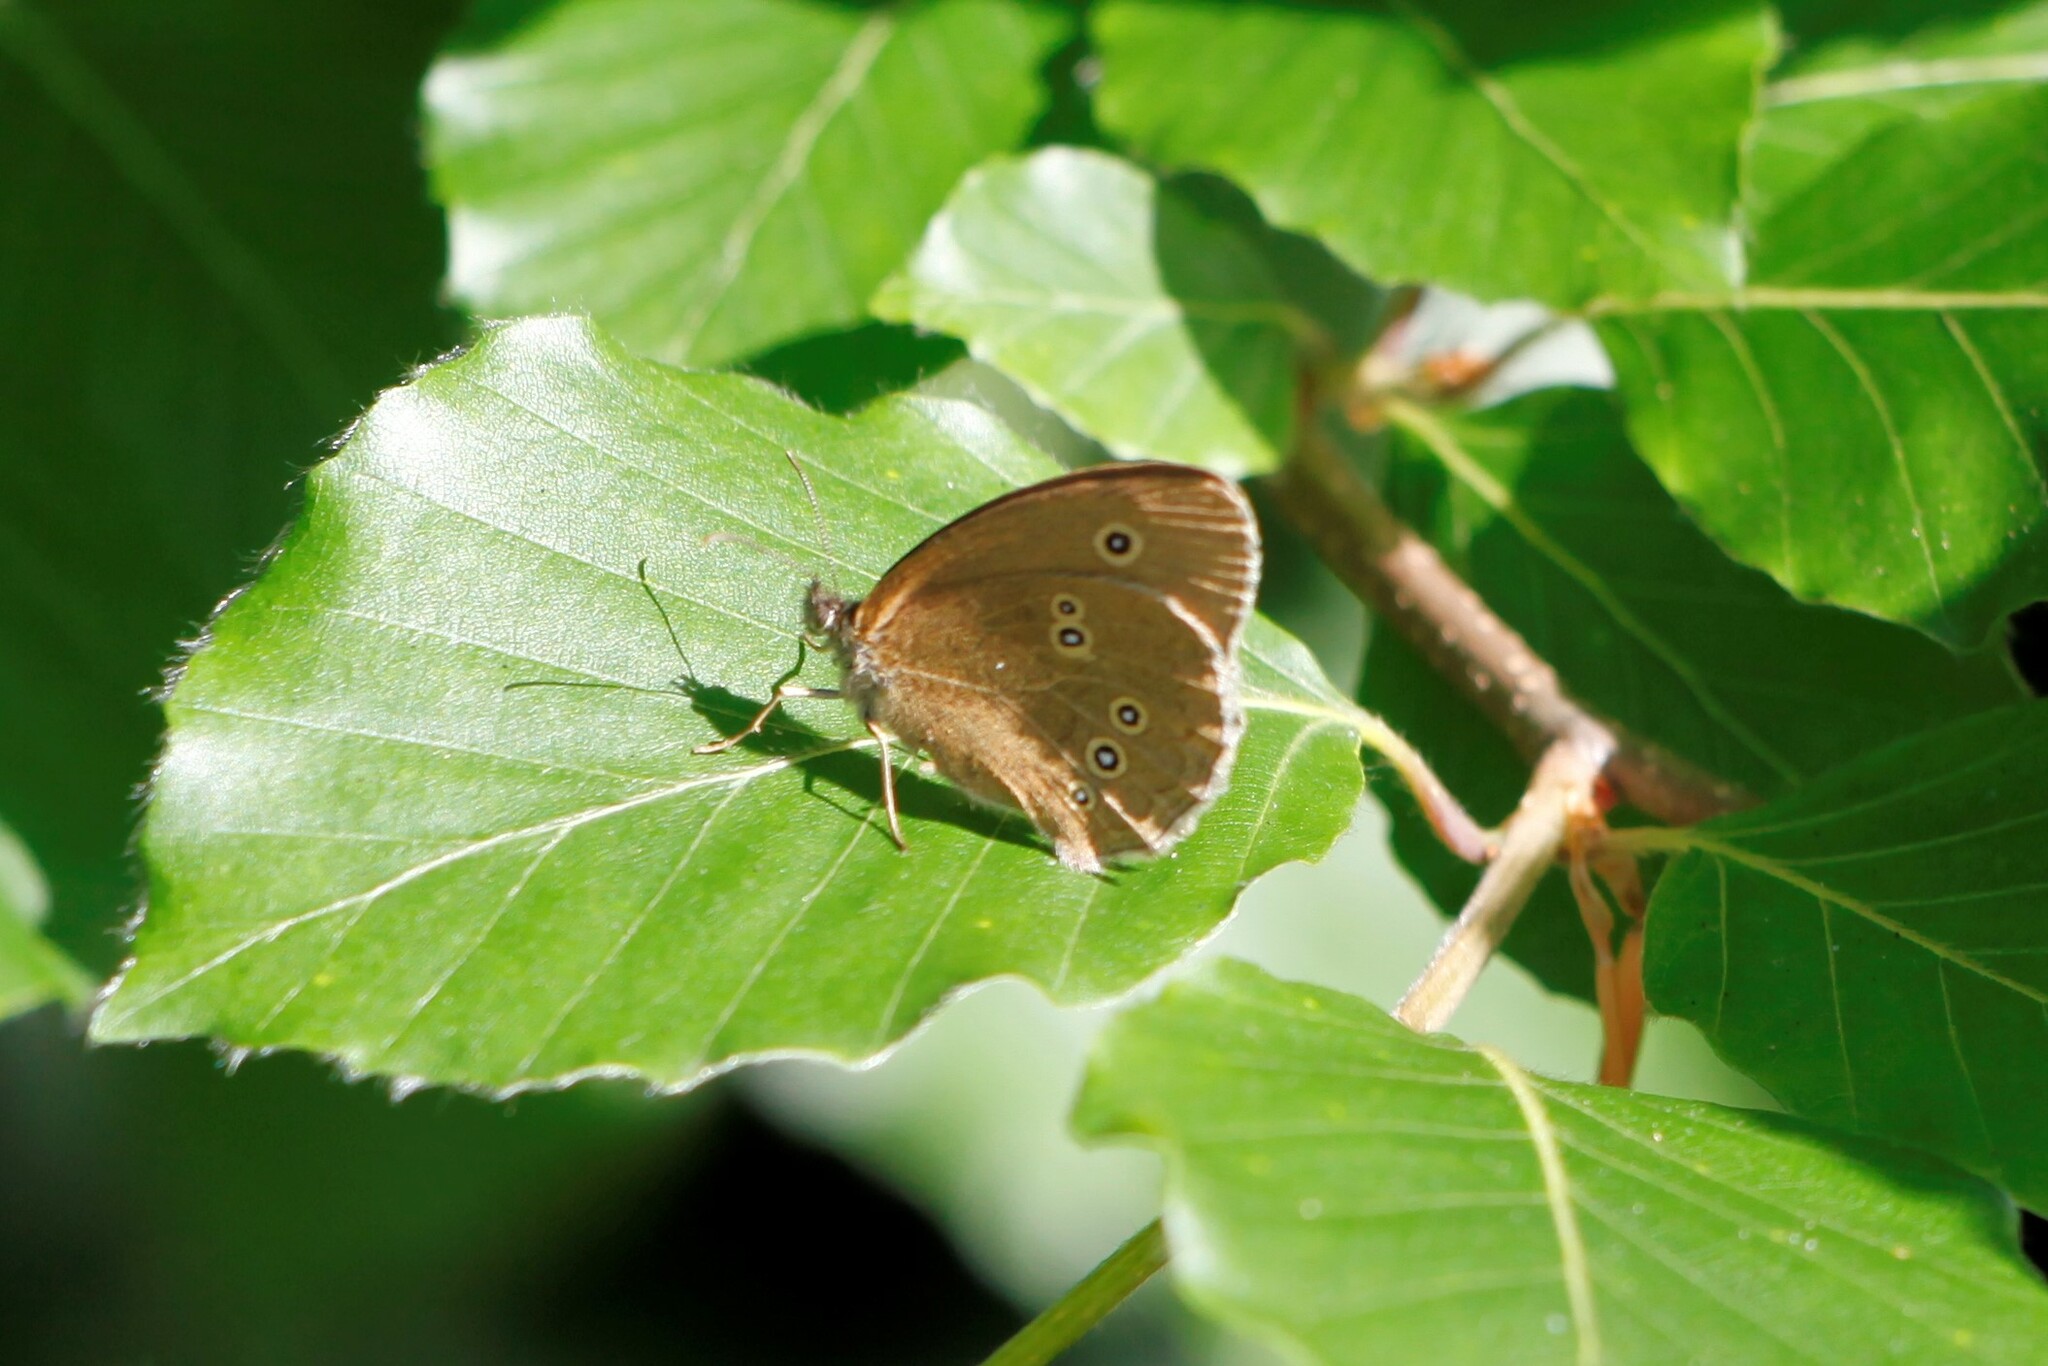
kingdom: Animalia
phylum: Arthropoda
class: Insecta
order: Lepidoptera
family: Nymphalidae
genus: Aphantopus
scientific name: Aphantopus hyperantus
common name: Ringlet
